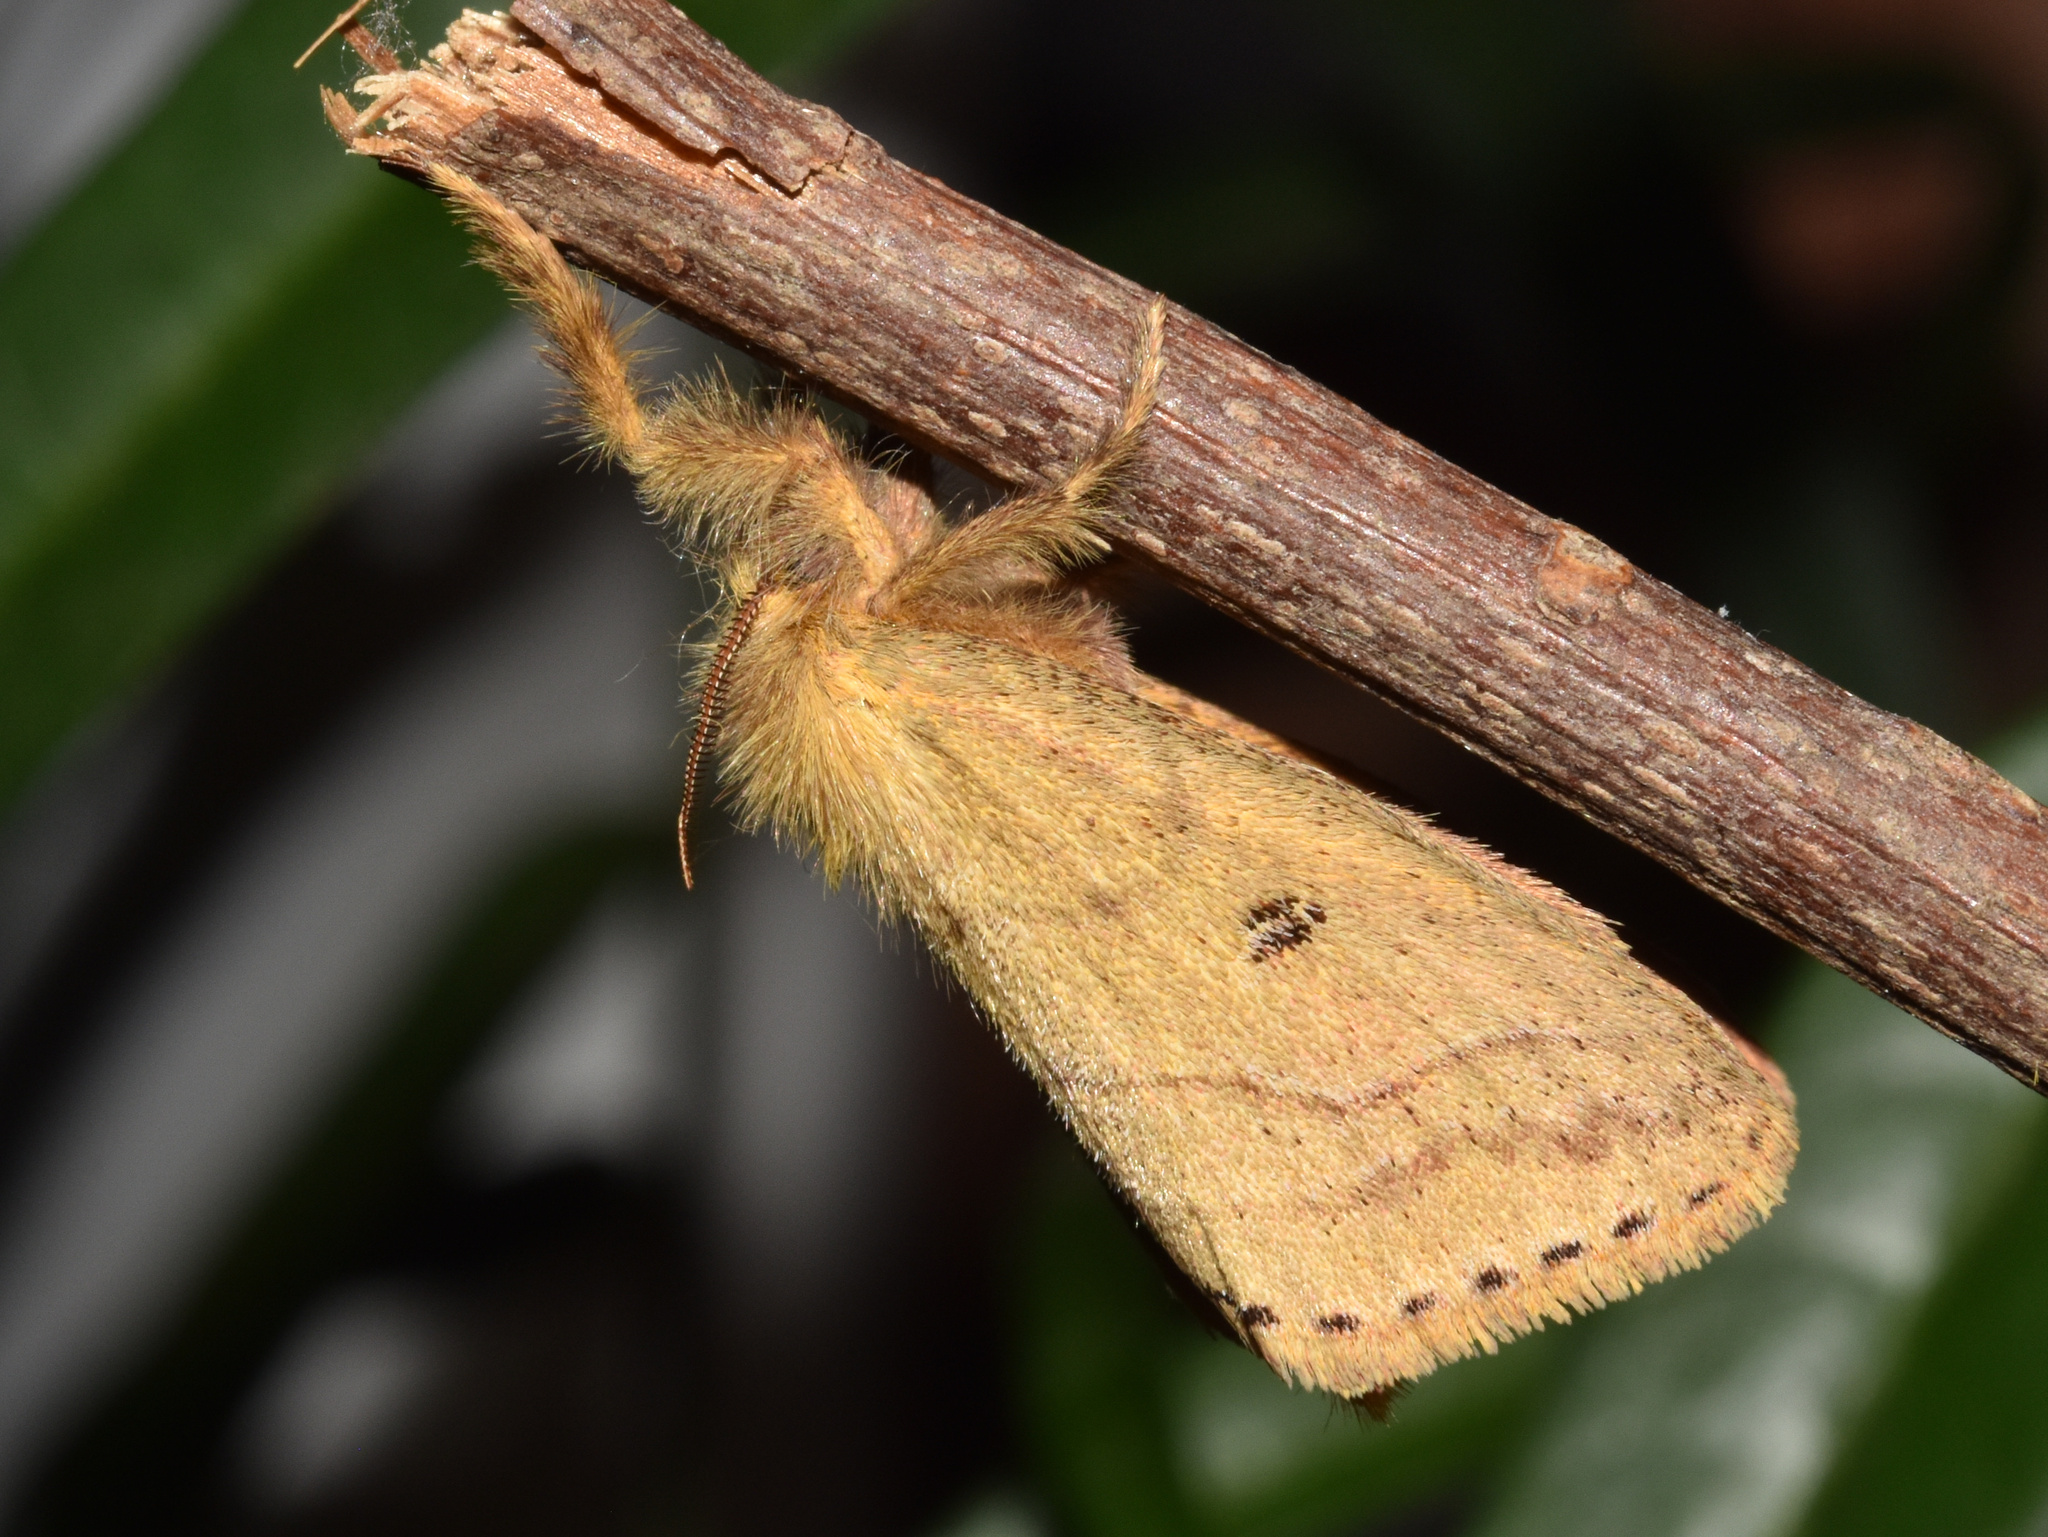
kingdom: Animalia
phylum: Arthropoda
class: Insecta
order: Lepidoptera
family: Erebidae
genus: Aroa
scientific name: Aroa discalis
